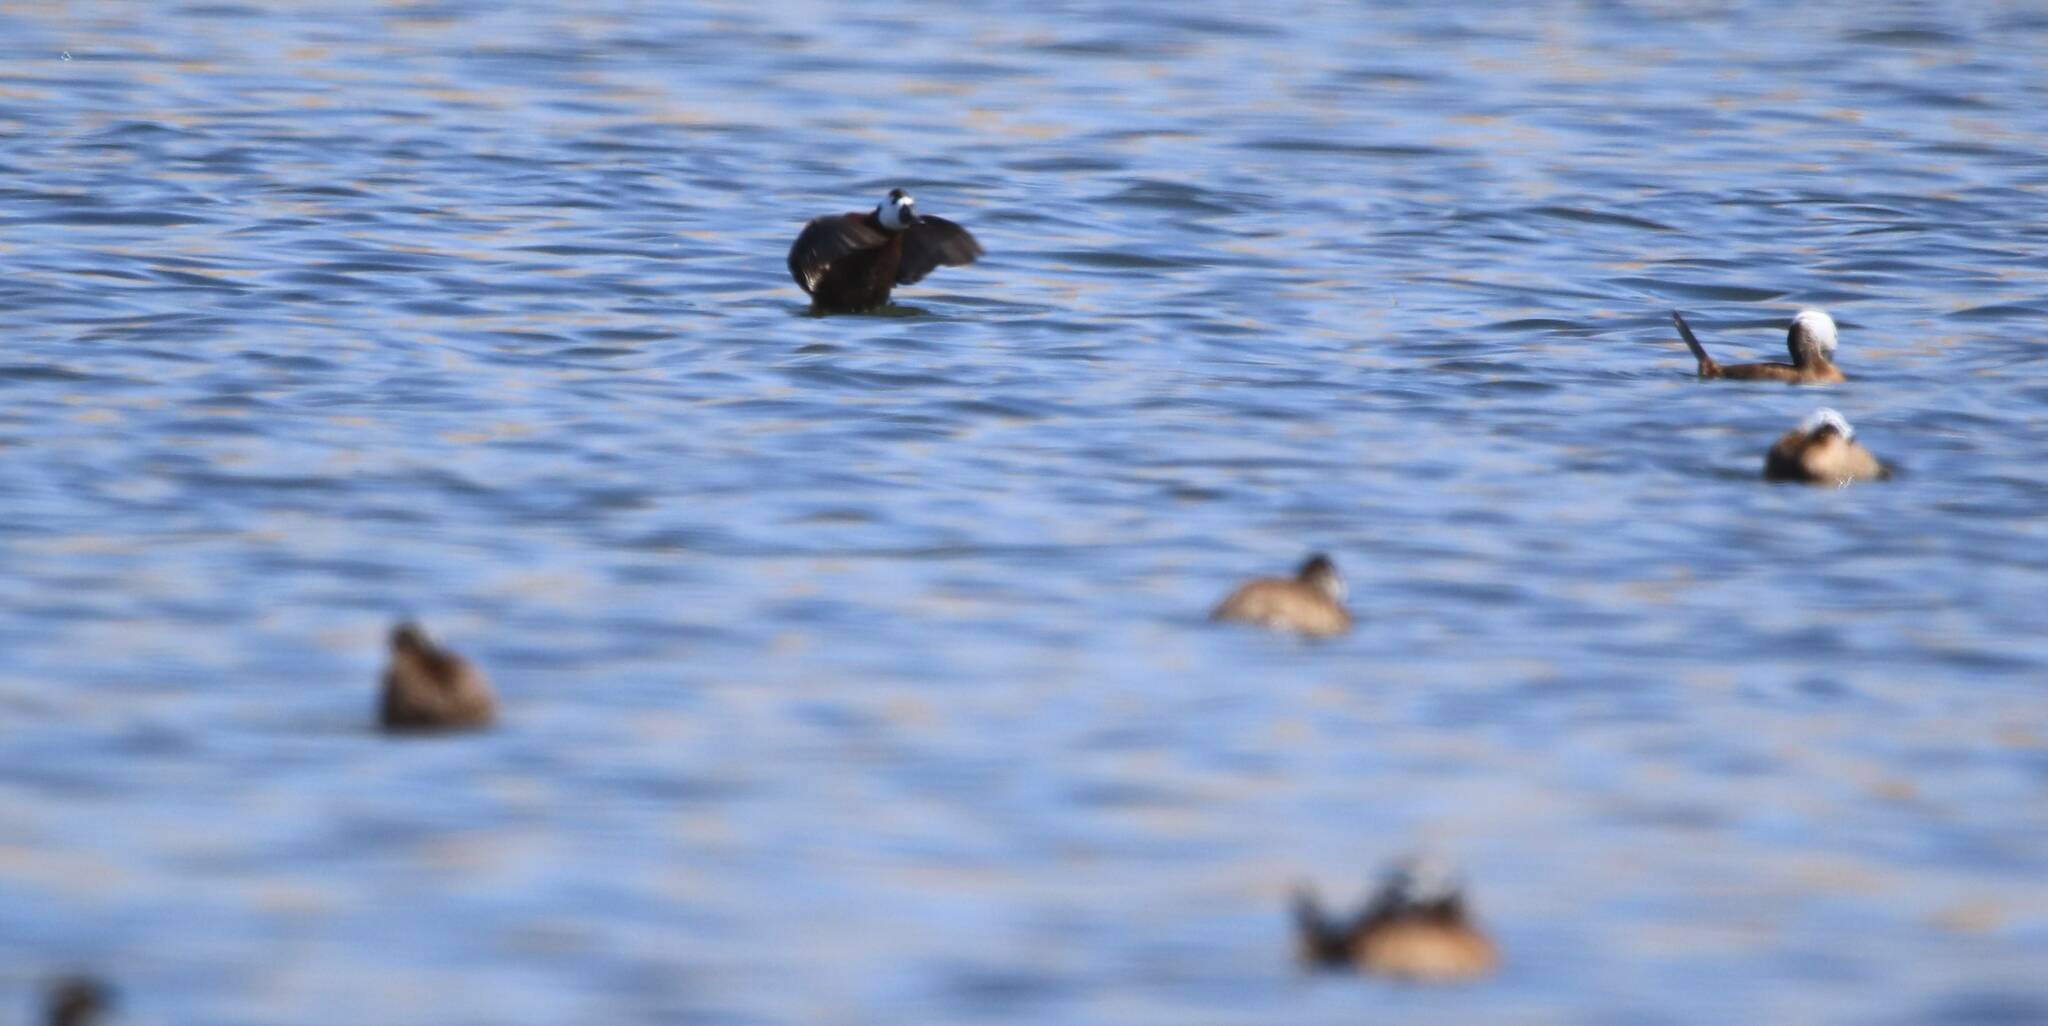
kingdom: Animalia
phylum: Chordata
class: Aves
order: Anseriformes
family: Anatidae
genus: Oxyura
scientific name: Oxyura leucocephala
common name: White-headed duck
